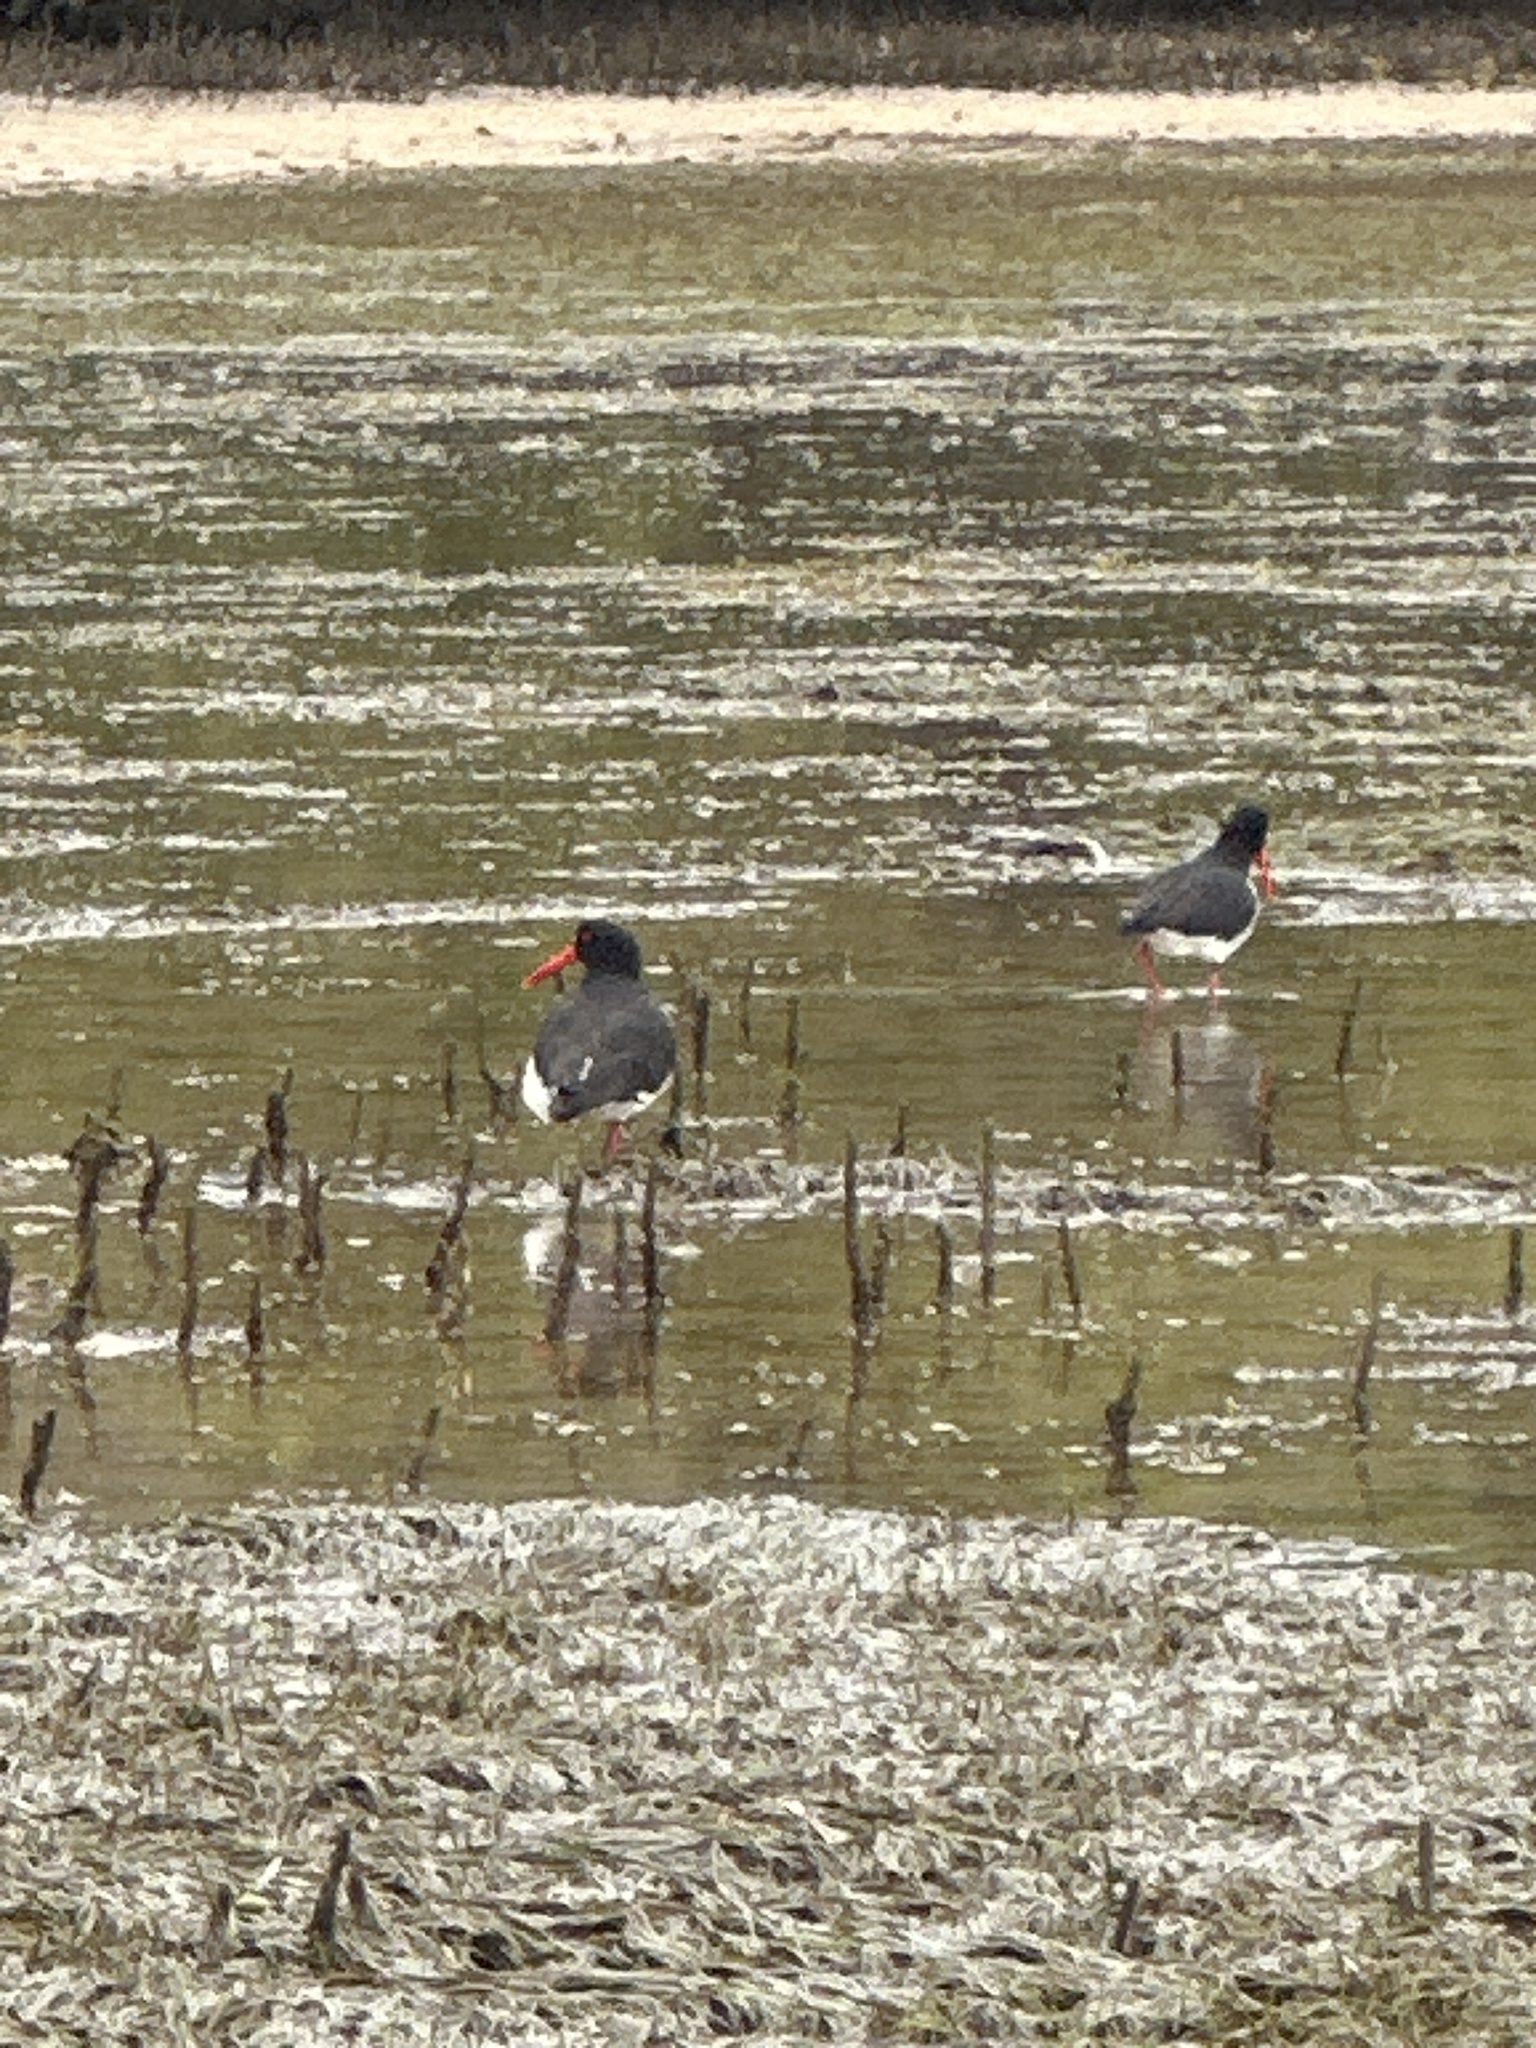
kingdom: Animalia
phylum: Chordata
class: Aves
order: Charadriiformes
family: Haematopodidae
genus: Haematopus
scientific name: Haematopus longirostris
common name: Pied oystercatcher
